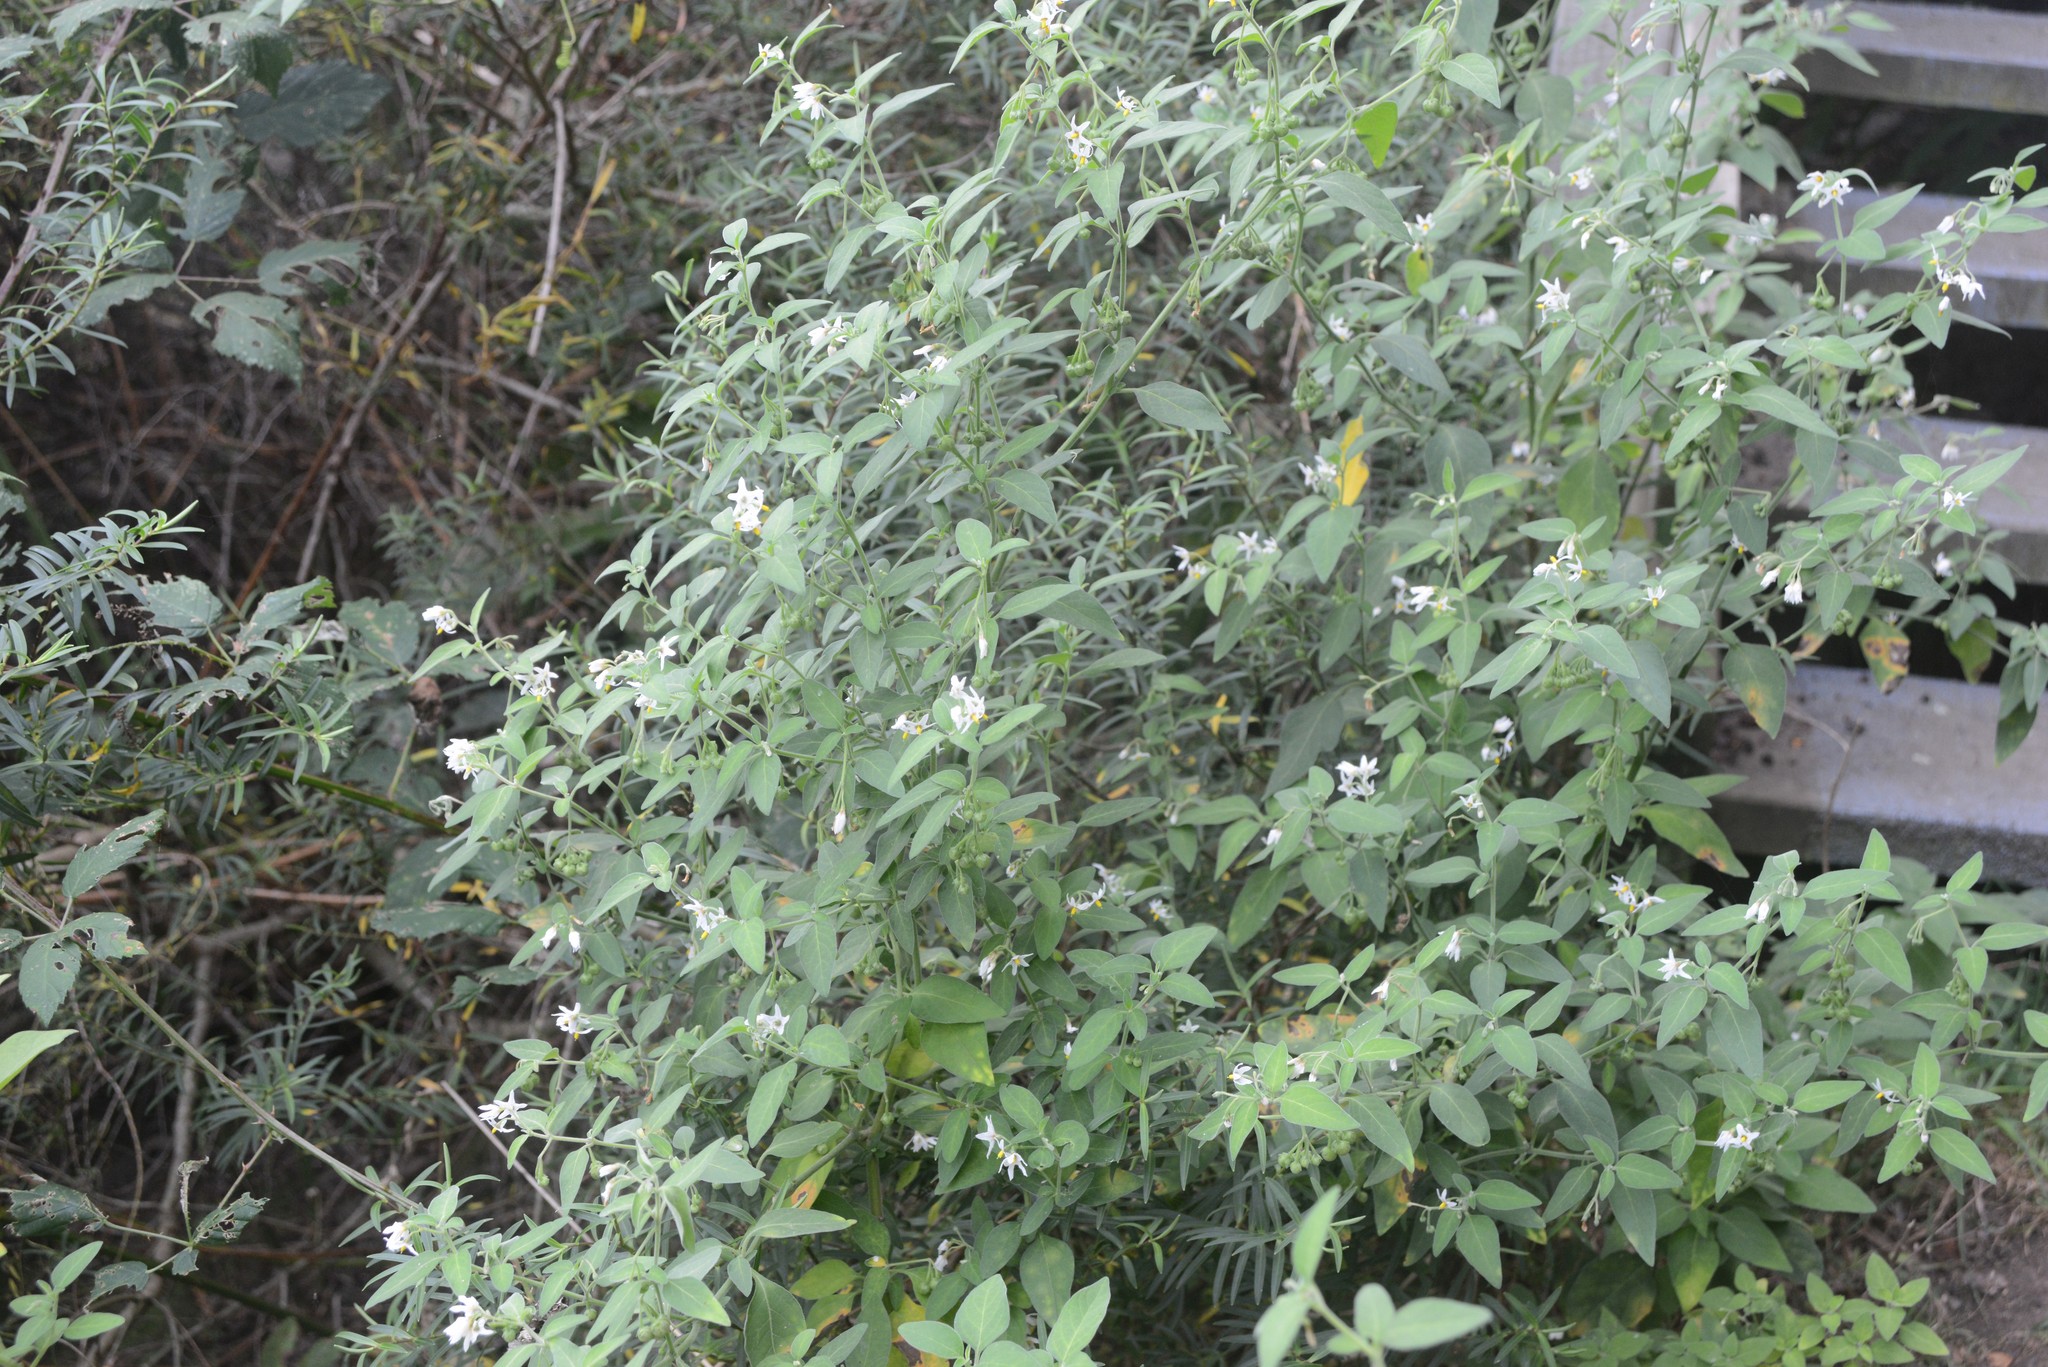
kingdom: Plantae
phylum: Tracheophyta
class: Magnoliopsida
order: Solanales
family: Solanaceae
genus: Solanum
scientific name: Solanum chenopodioides
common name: Tall nightshade
